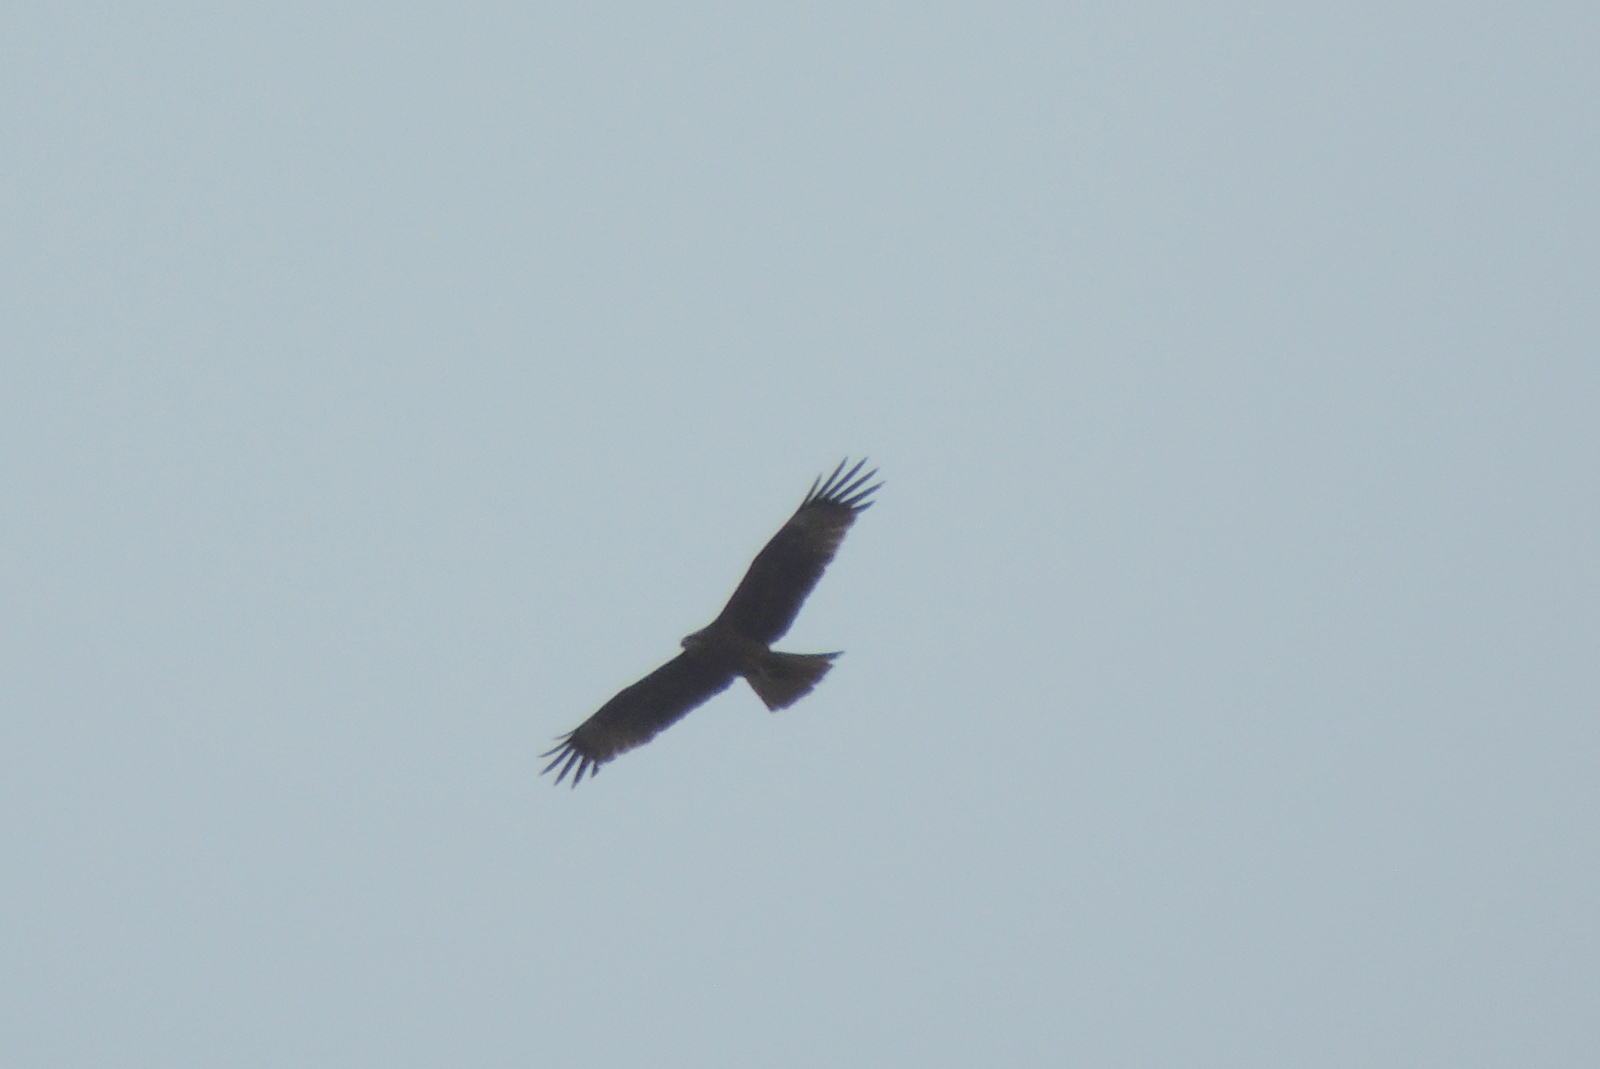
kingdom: Animalia
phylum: Chordata
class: Aves
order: Accipitriformes
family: Accipitridae
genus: Milvus
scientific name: Milvus migrans
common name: Black kite
